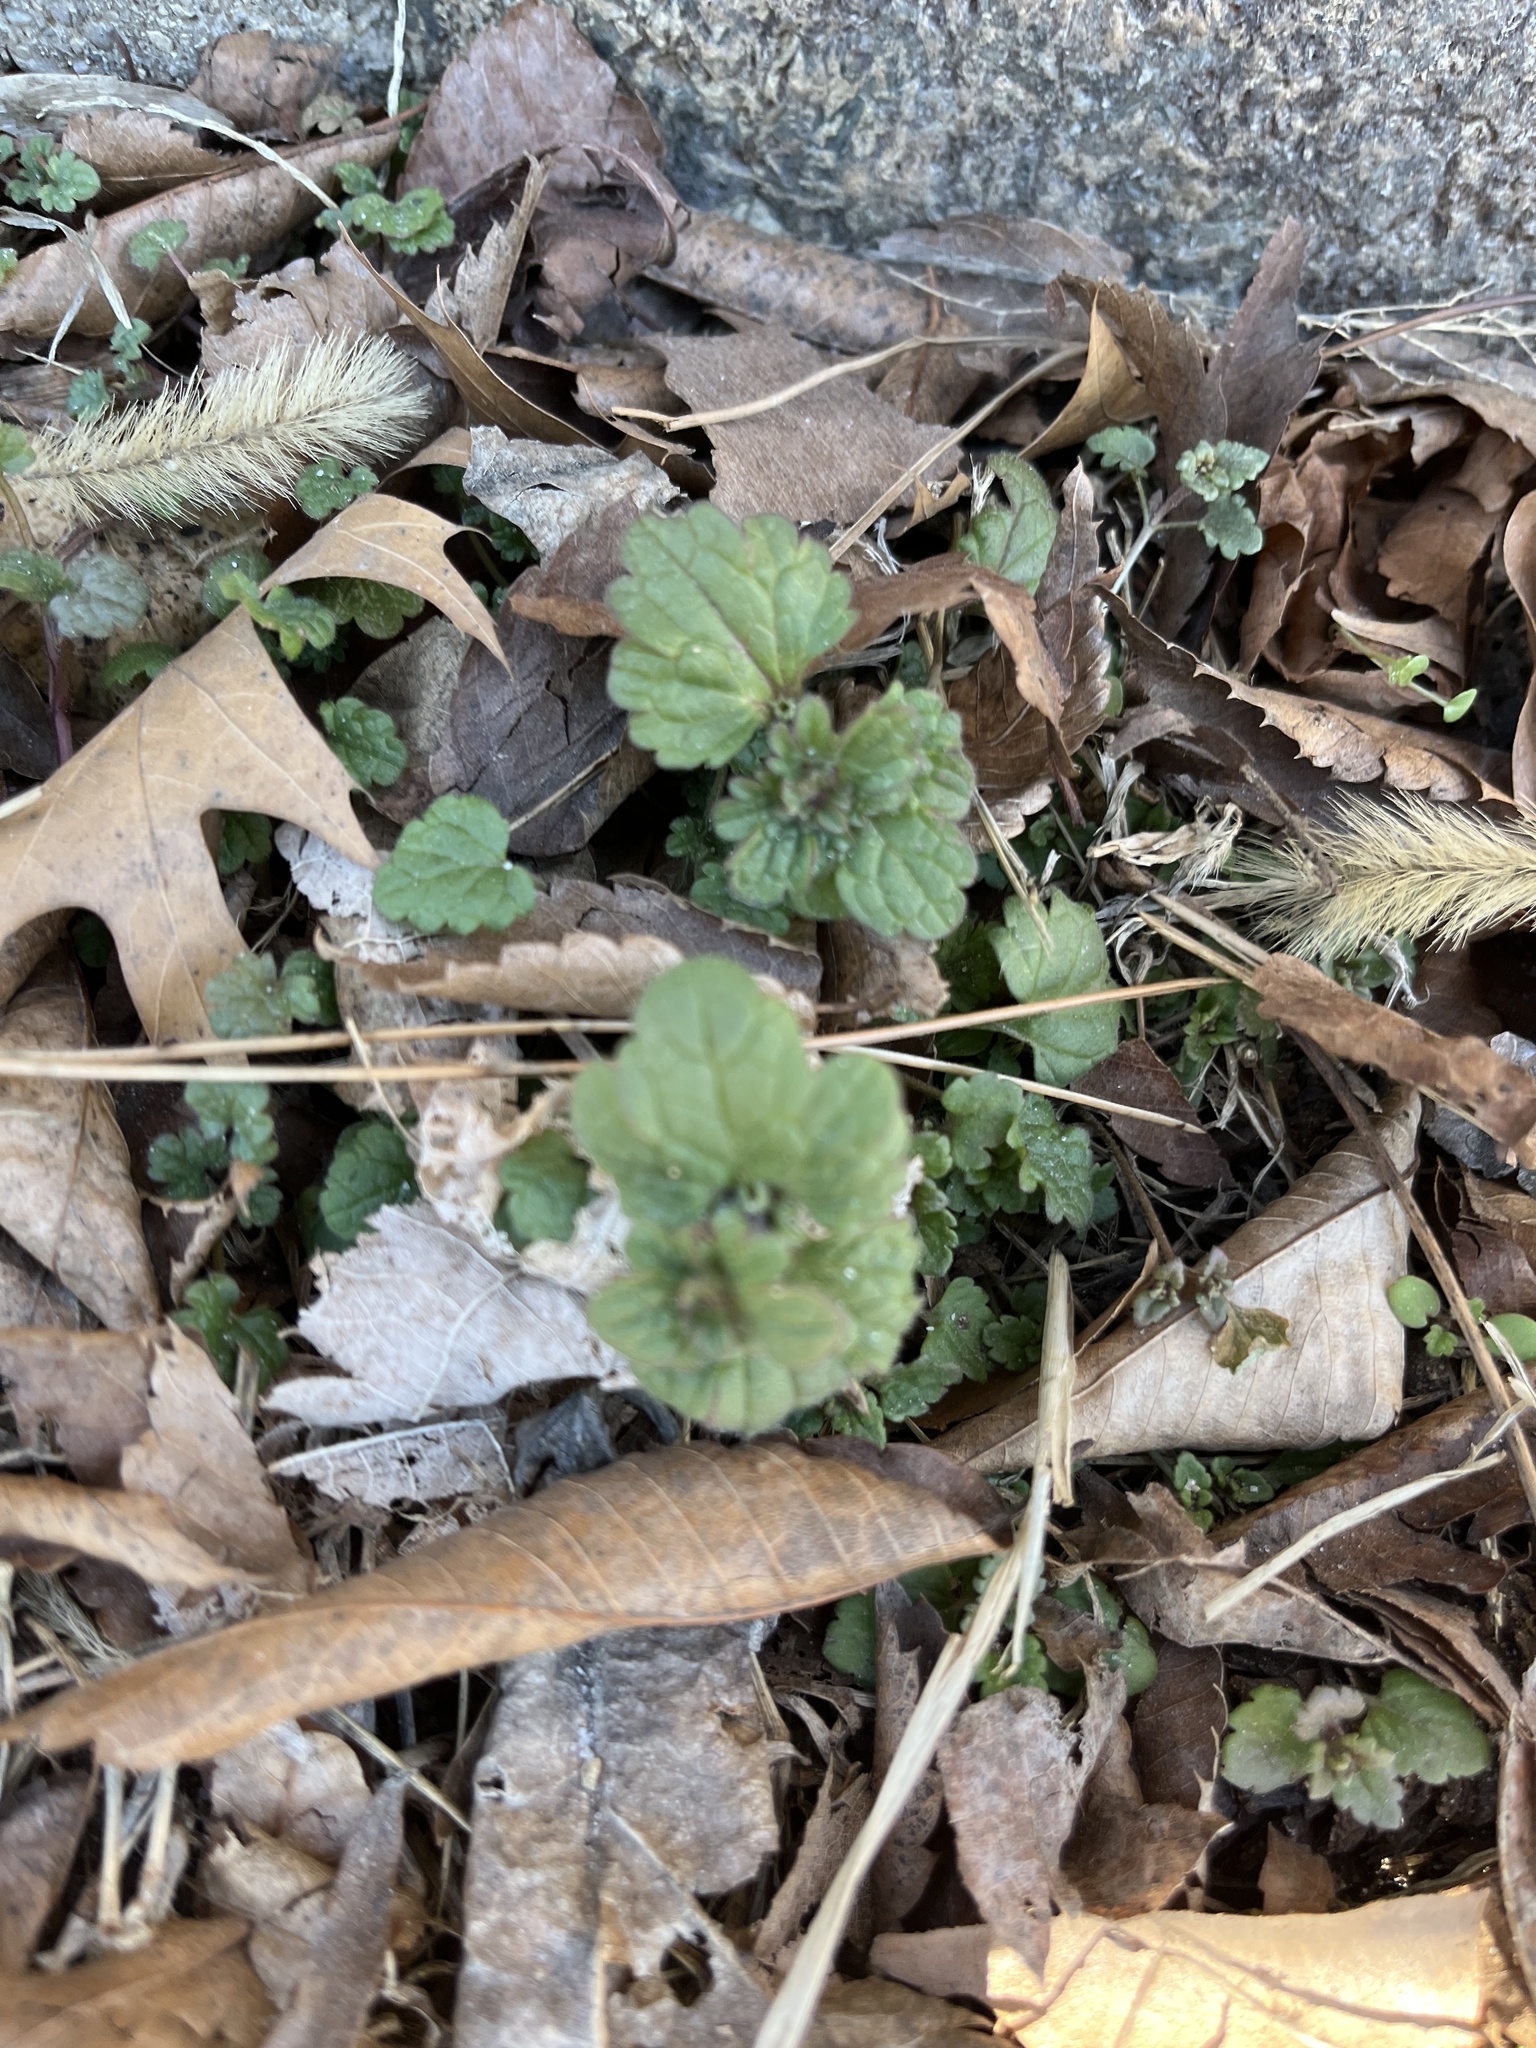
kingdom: Plantae
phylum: Tracheophyta
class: Magnoliopsida
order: Lamiales
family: Lamiaceae
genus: Lamium
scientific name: Lamium amplexicaule
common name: Henbit dead-nettle
